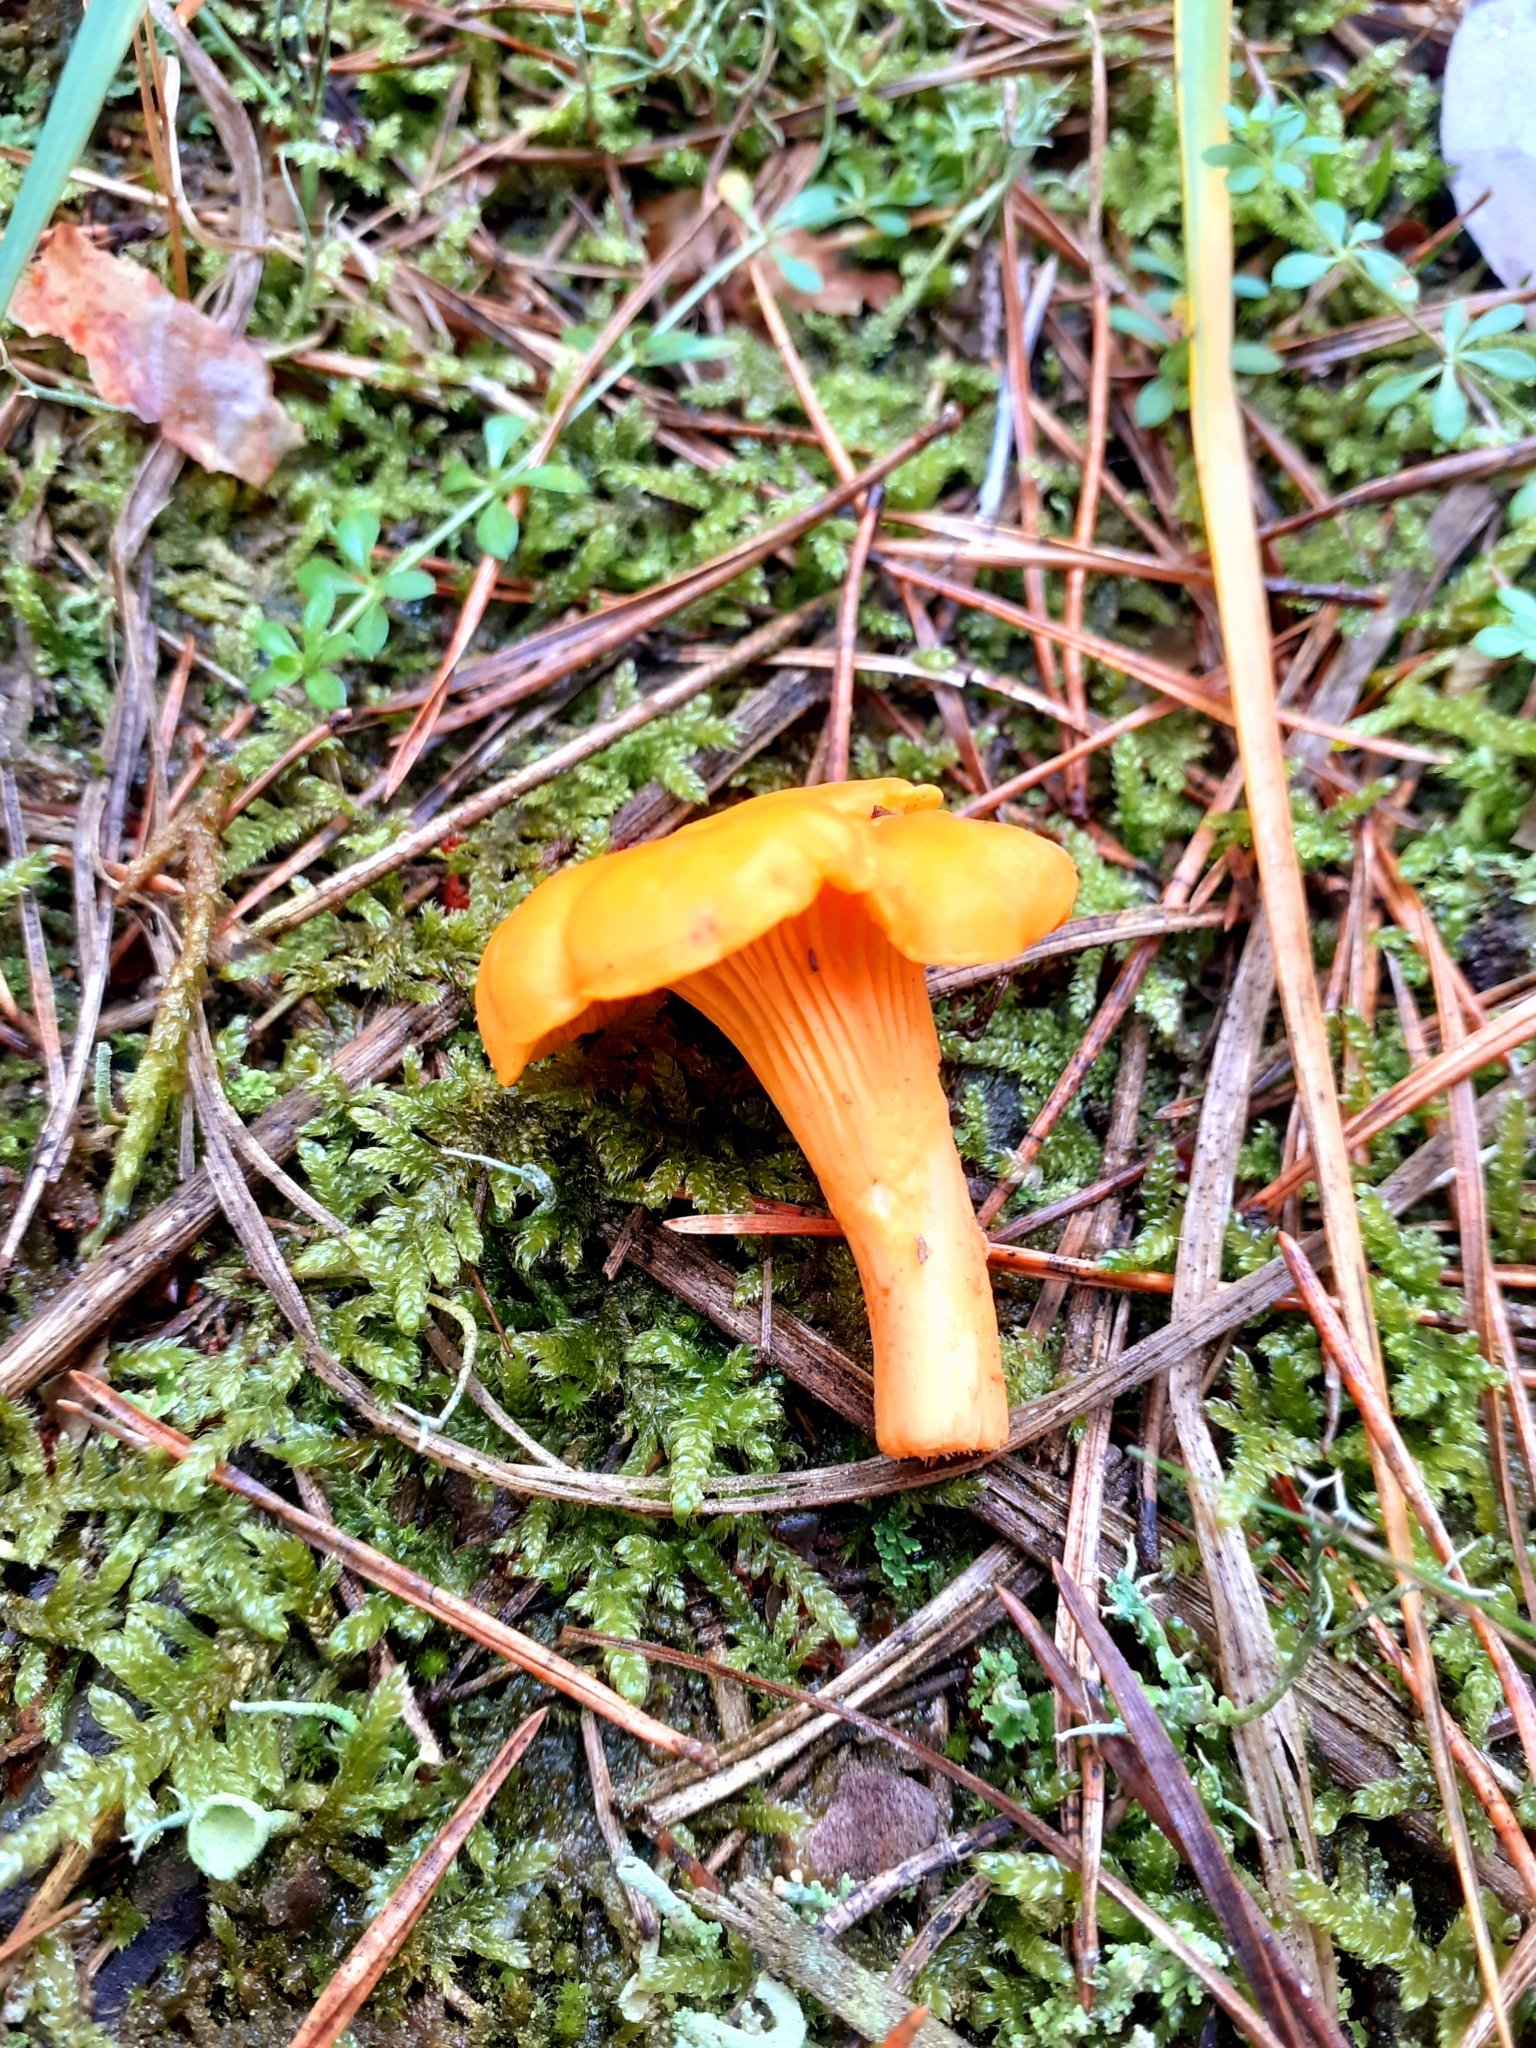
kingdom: Fungi
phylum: Basidiomycota
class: Agaricomycetes
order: Cantharellales
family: Hydnaceae
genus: Cantharellus
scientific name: Cantharellus cibarius
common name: Chanterelle
